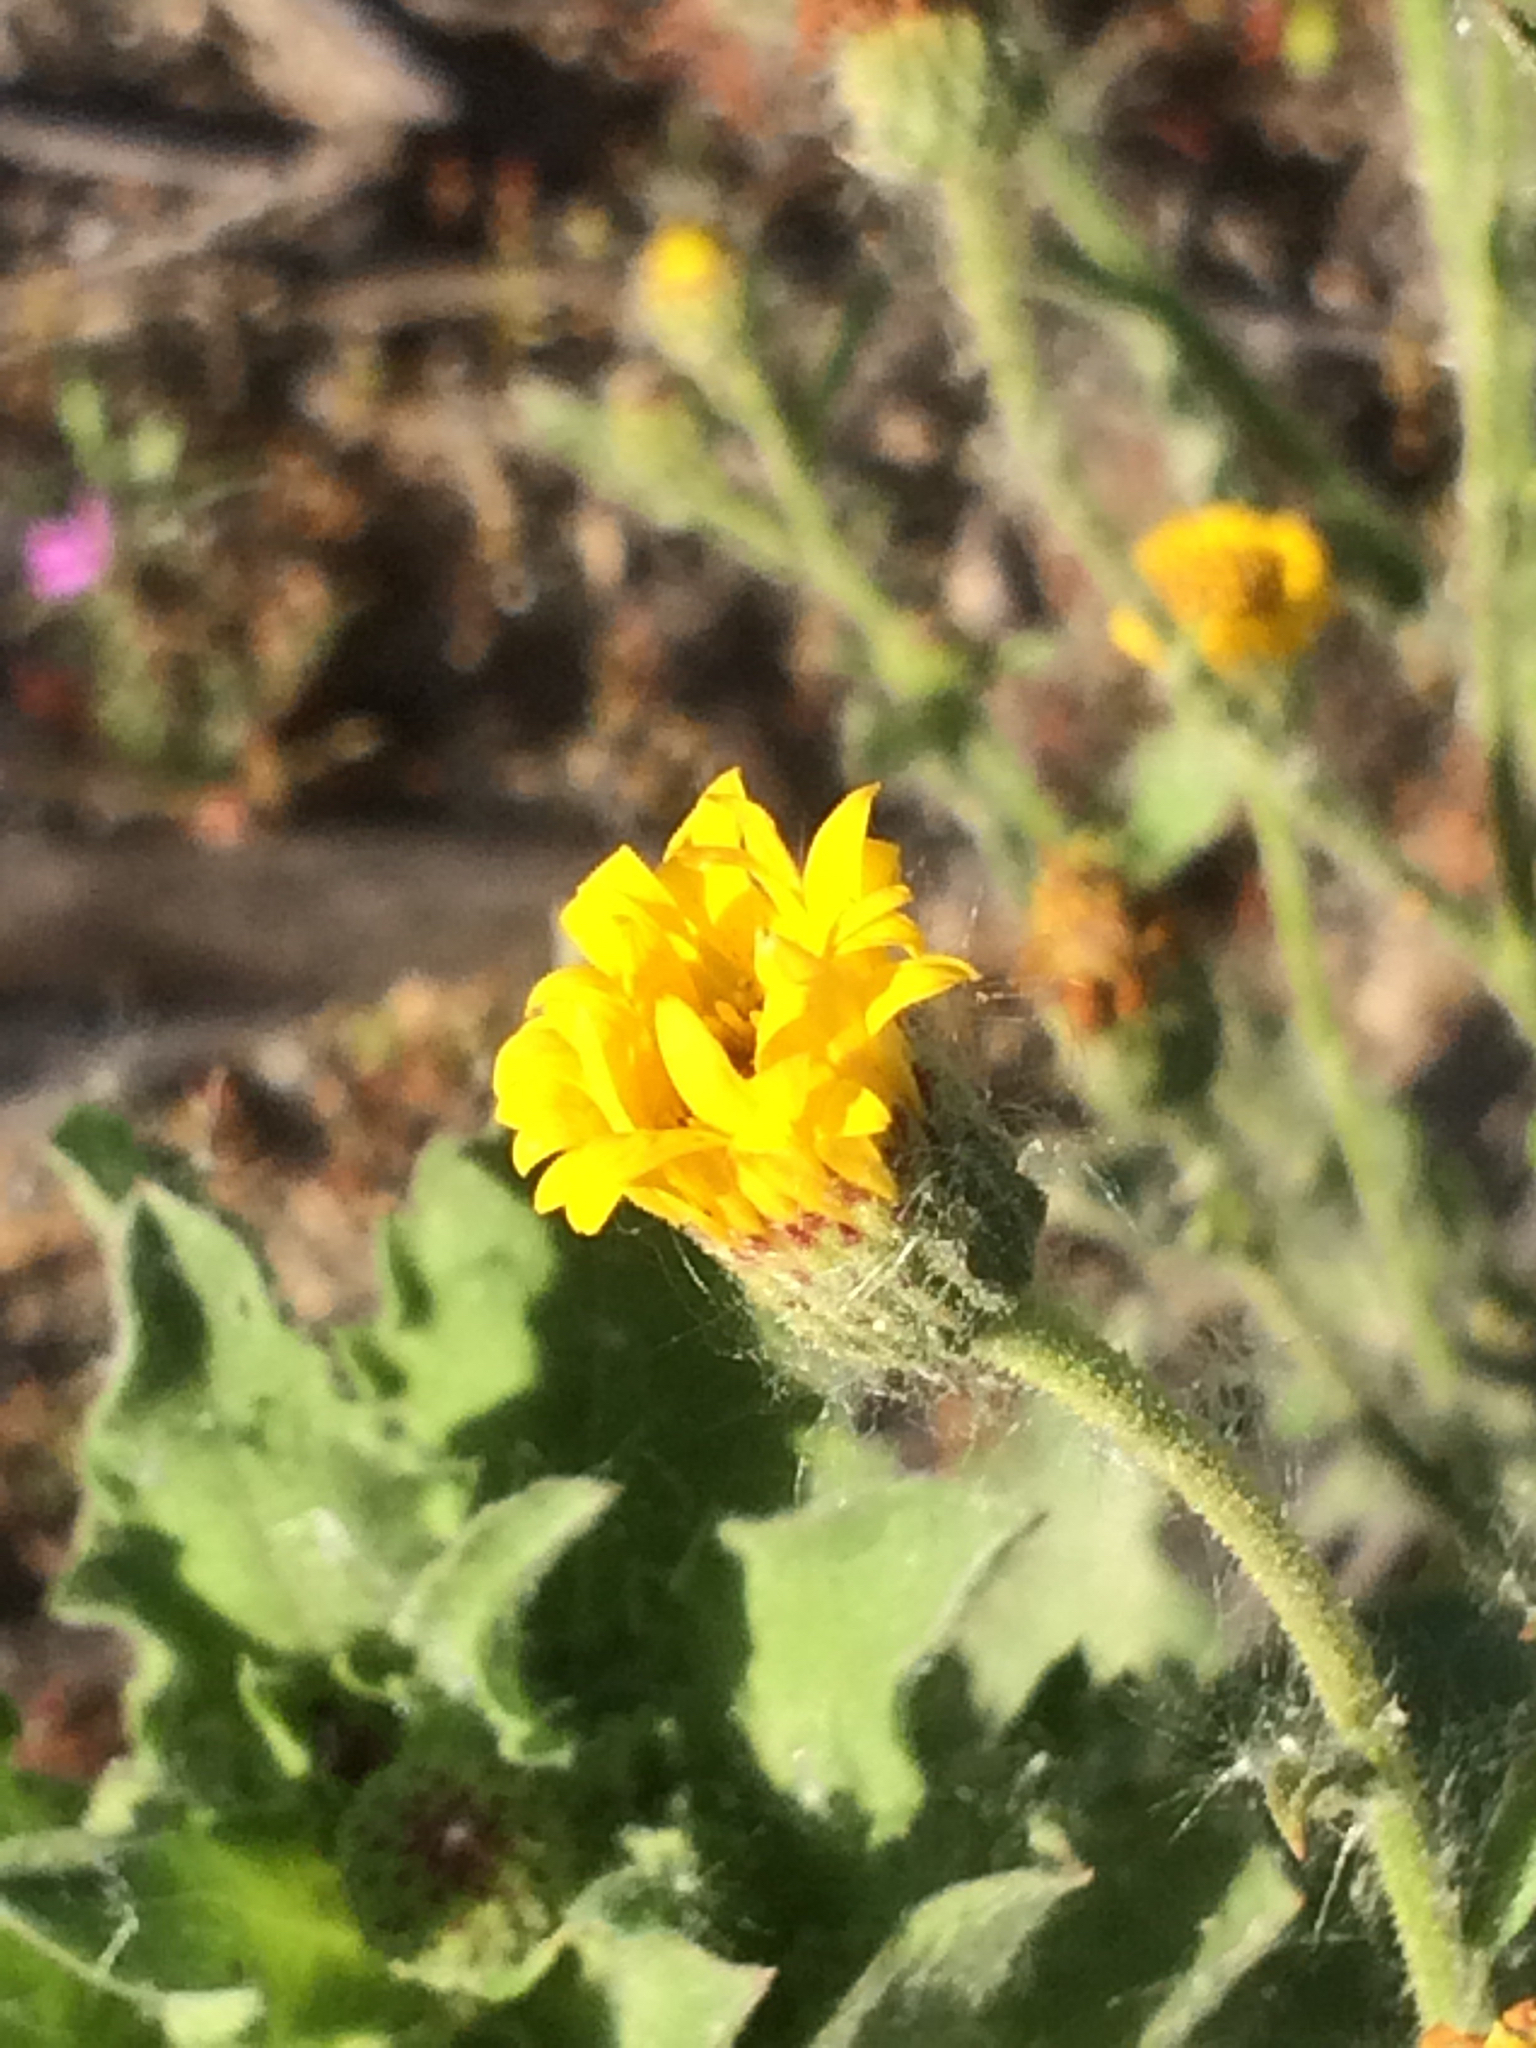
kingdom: Plantae
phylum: Tracheophyta
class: Magnoliopsida
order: Asterales
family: Asteraceae
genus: Heterotheca
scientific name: Heterotheca grandiflora
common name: Telegraphweed
